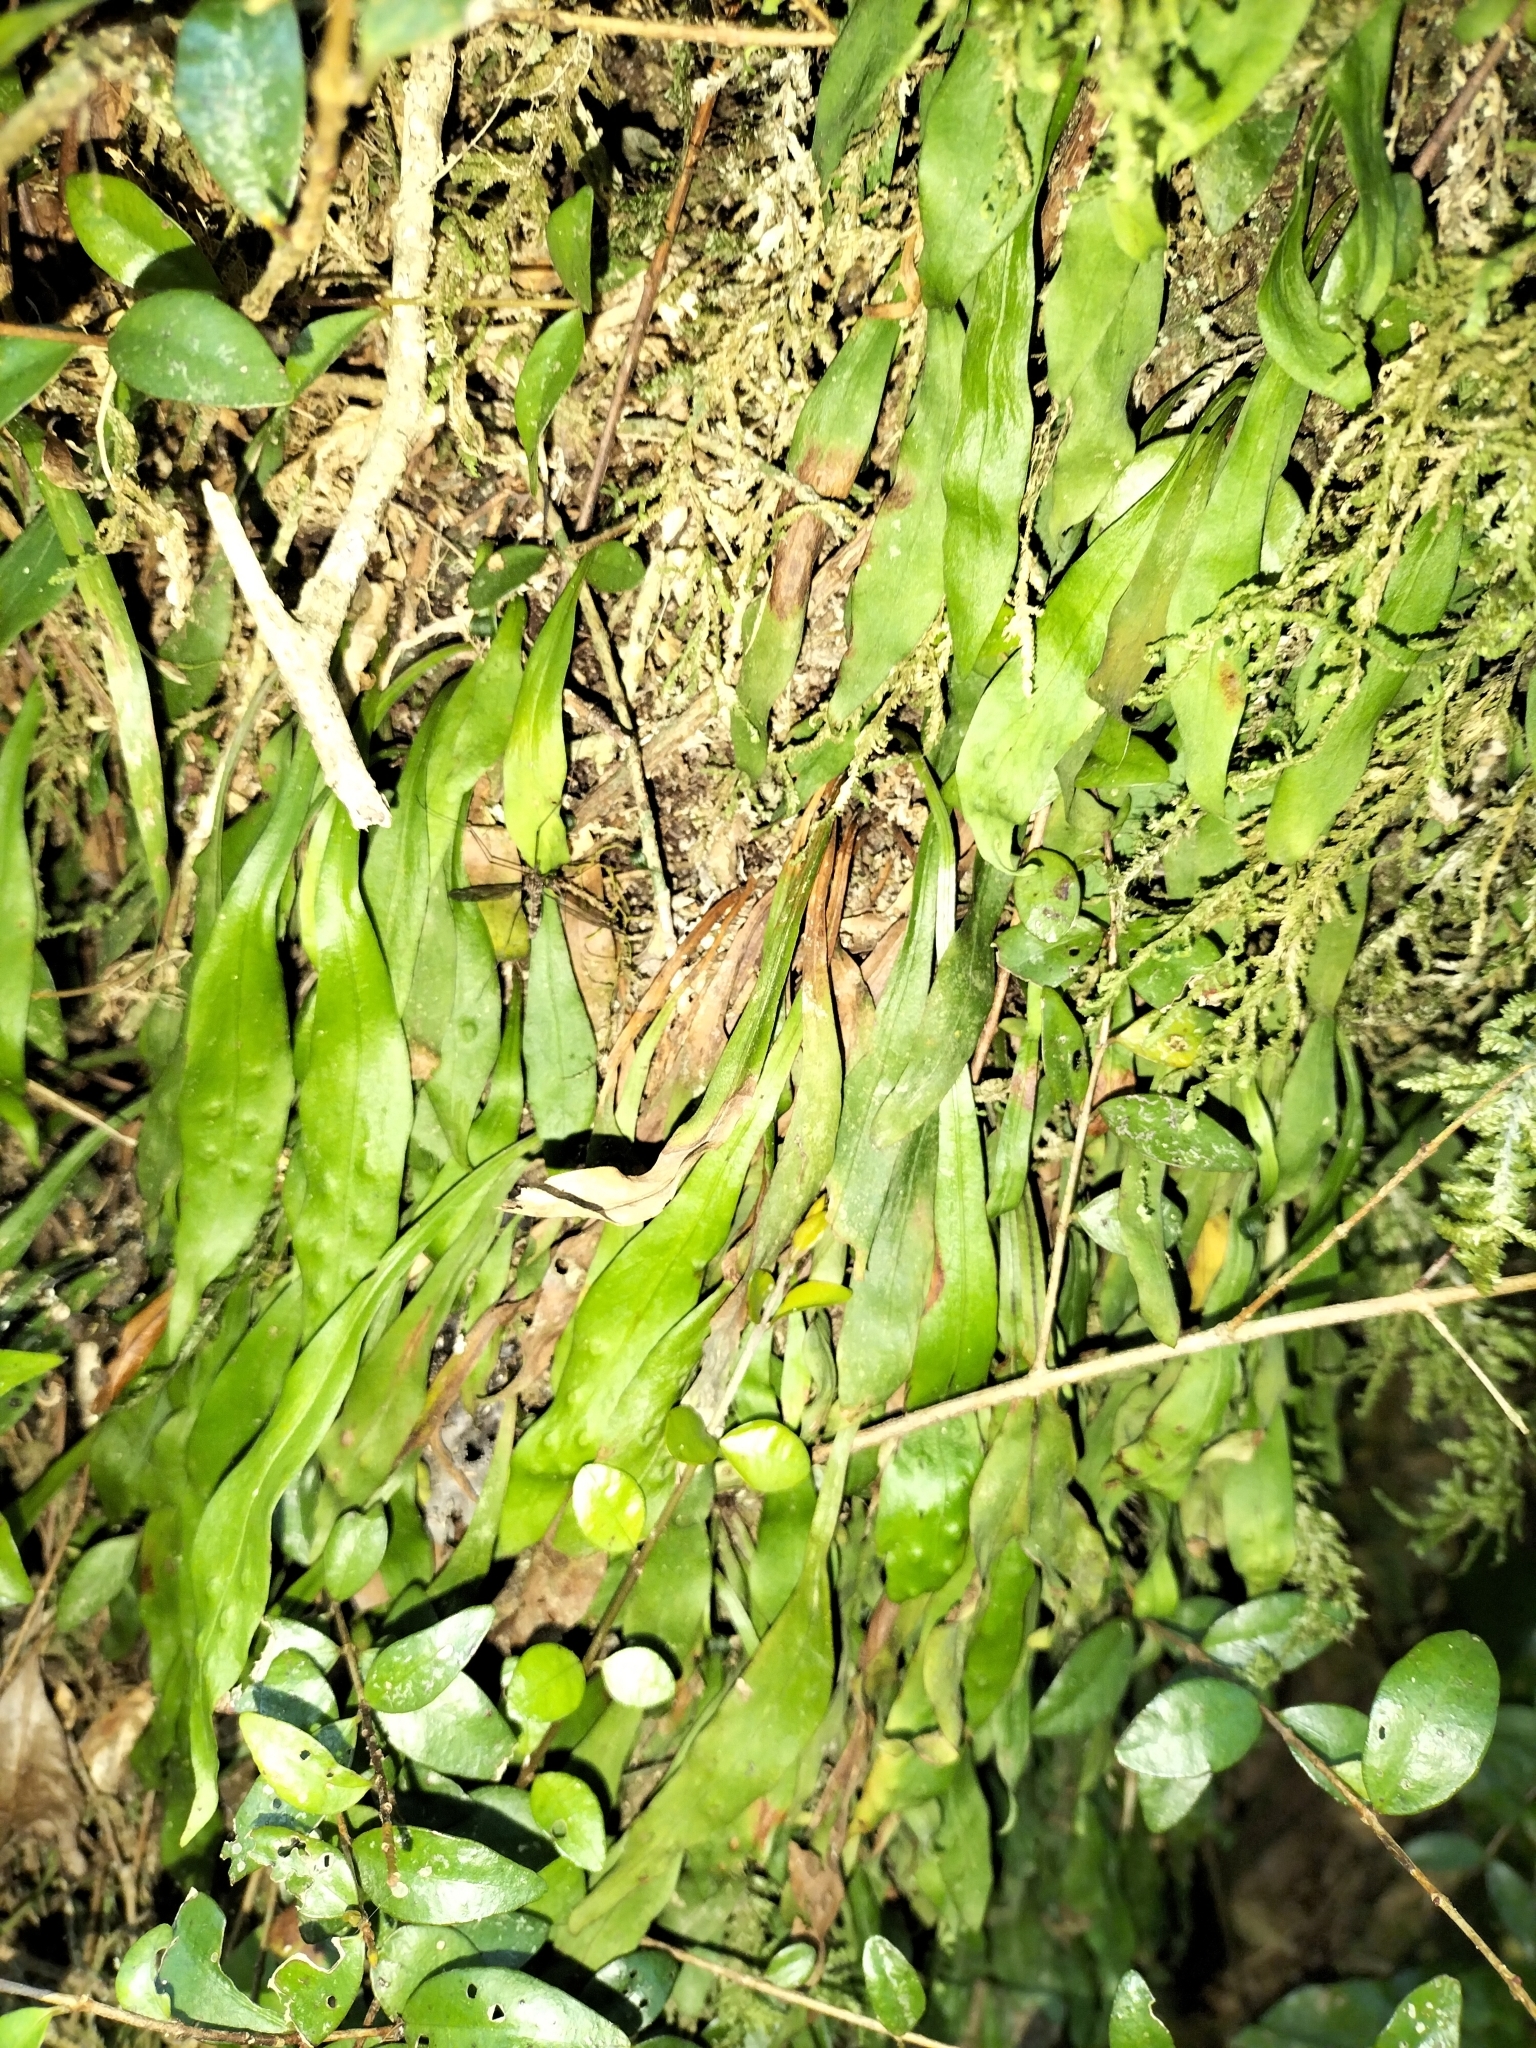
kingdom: Plantae
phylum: Tracheophyta
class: Polypodiopsida
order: Polypodiales
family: Polypodiaceae
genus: Loxogramme
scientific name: Loxogramme dictyopteris
